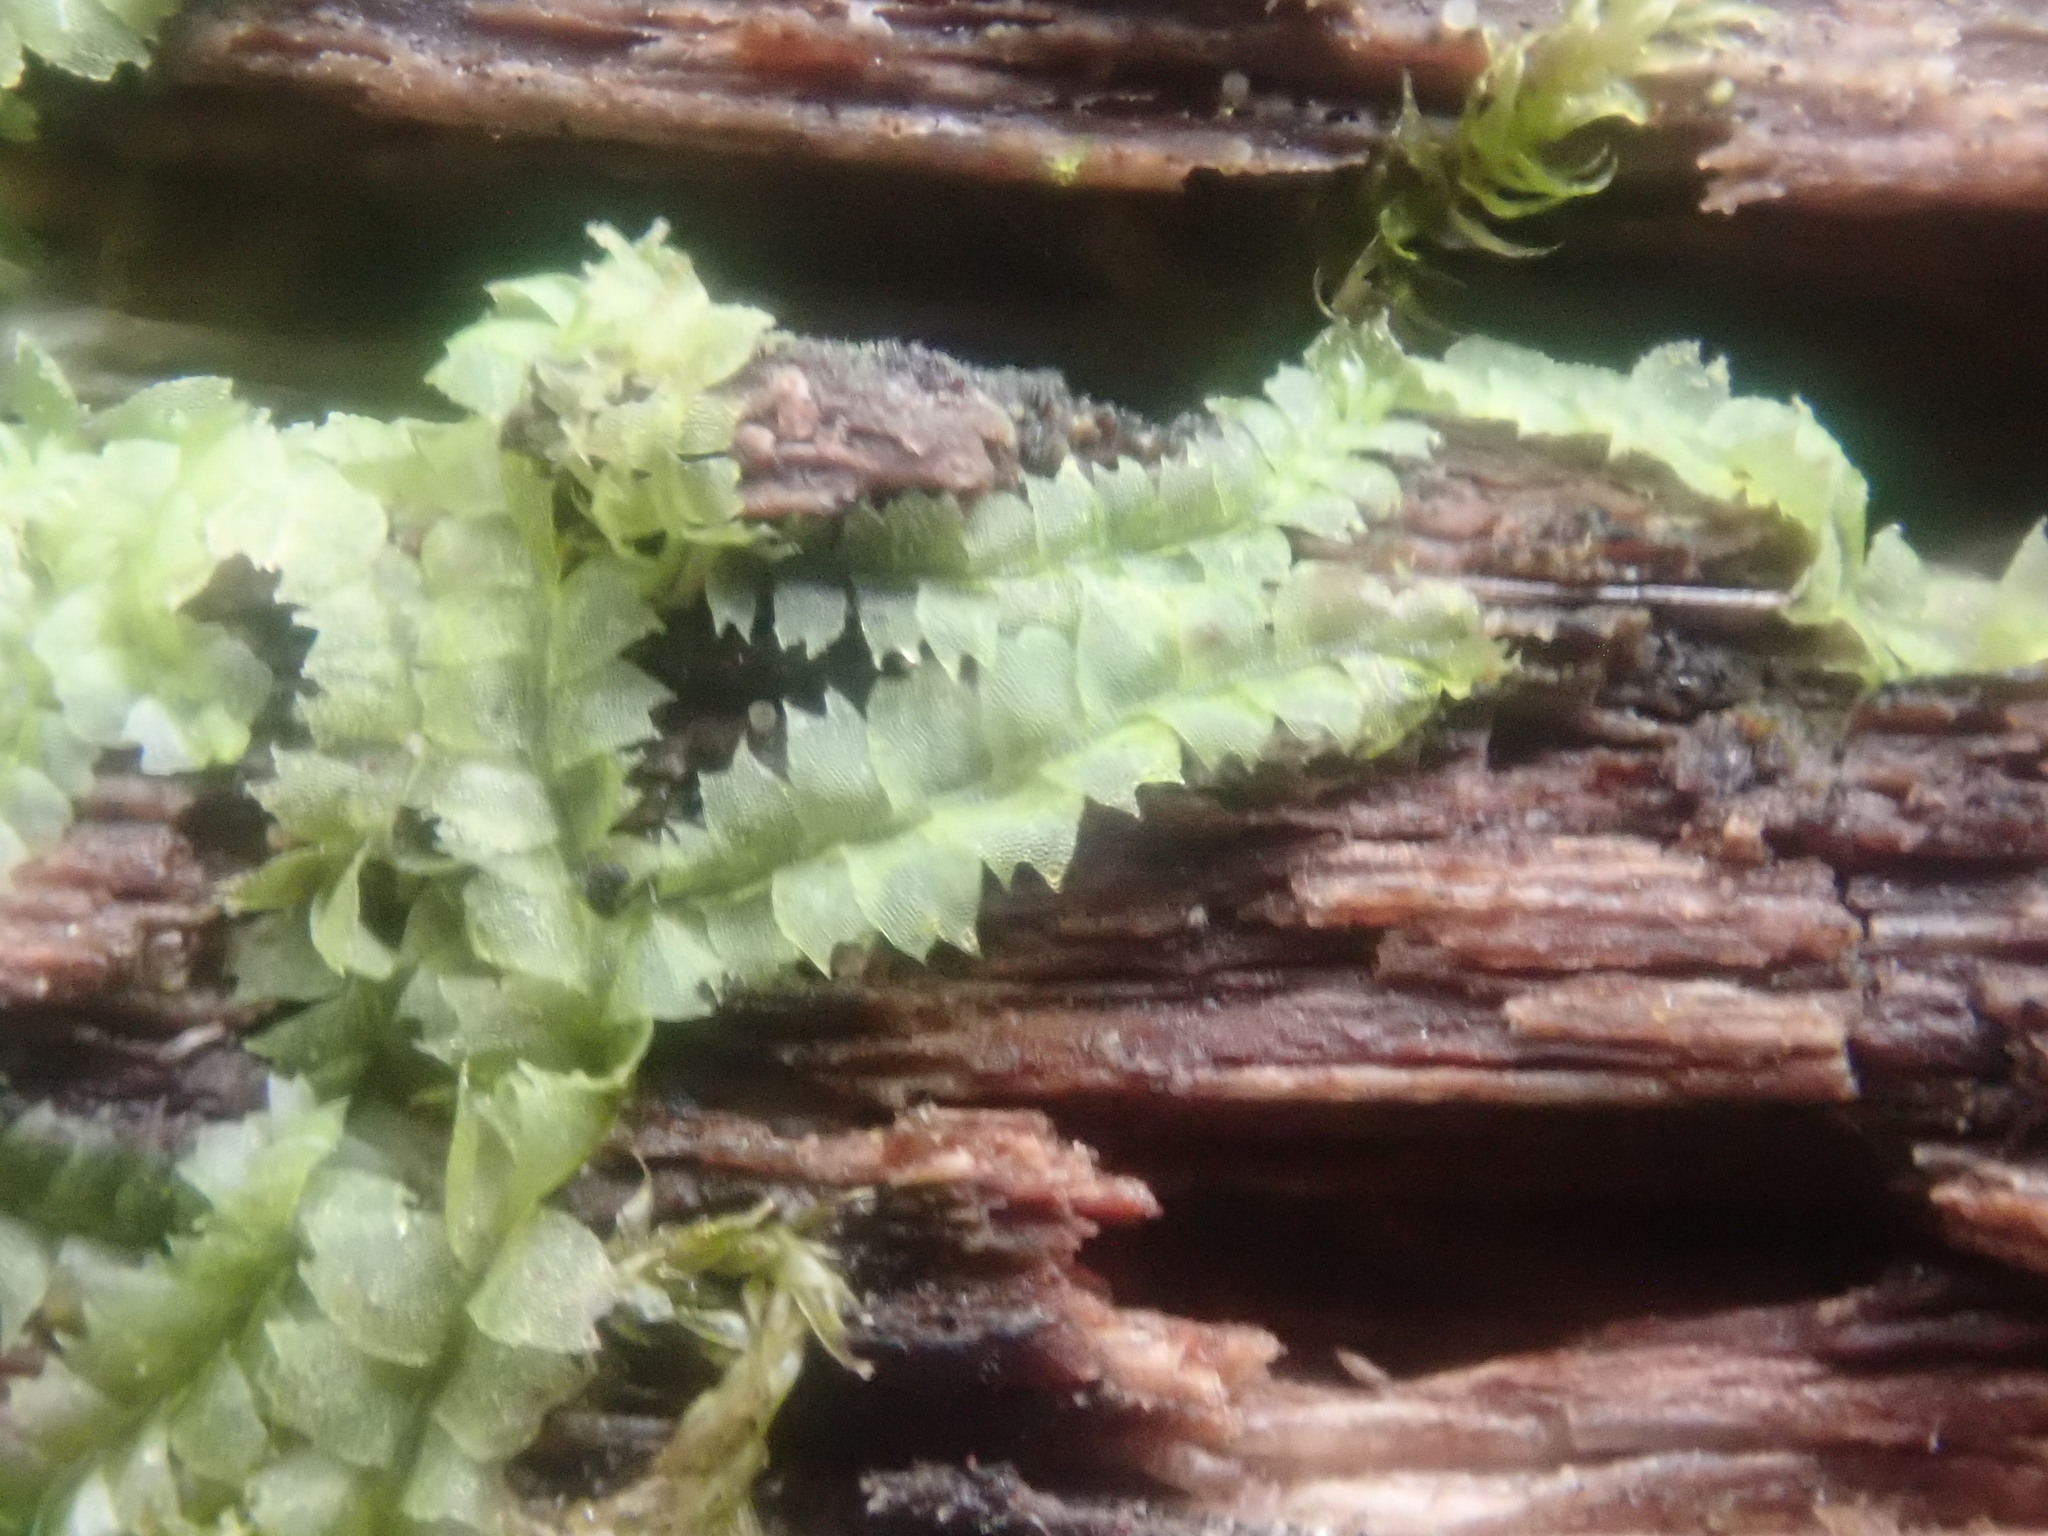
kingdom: Plantae
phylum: Marchantiophyta
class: Jungermanniopsida
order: Jungermanniales
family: Lophocoleaceae
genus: Lophocolea
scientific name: Lophocolea heterophylla
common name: Variable-leaved crestwort
